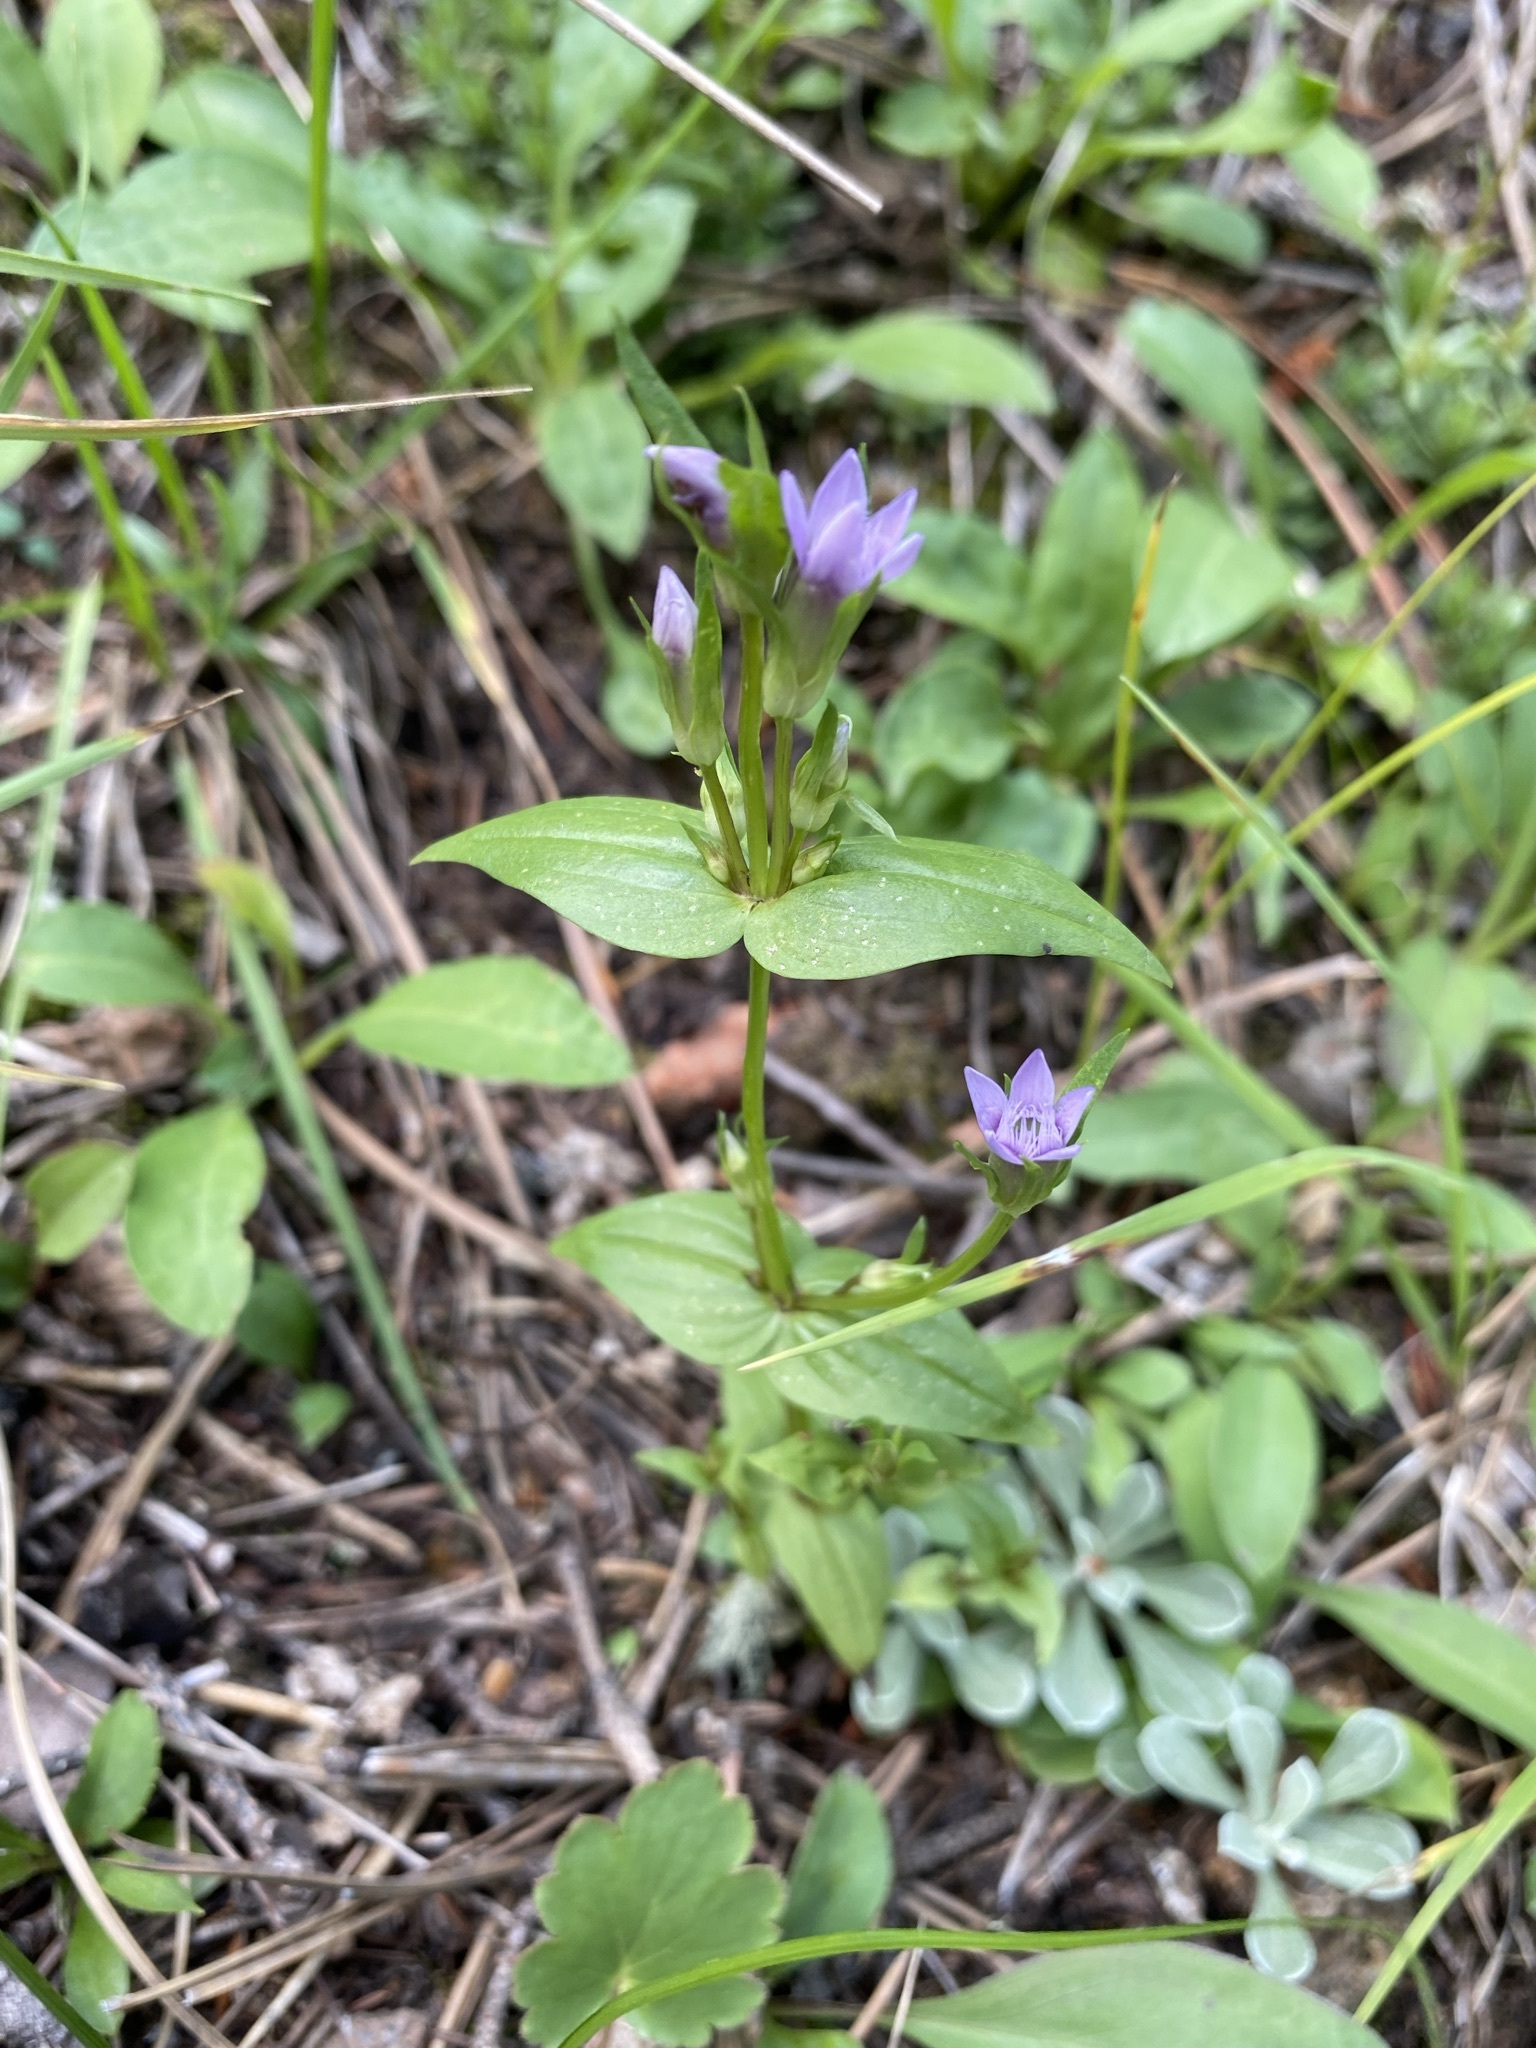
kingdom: Plantae
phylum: Tracheophyta
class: Magnoliopsida
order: Gentianales
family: Gentianaceae
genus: Gentianella
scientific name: Gentianella amarella
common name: Autumn gentian
